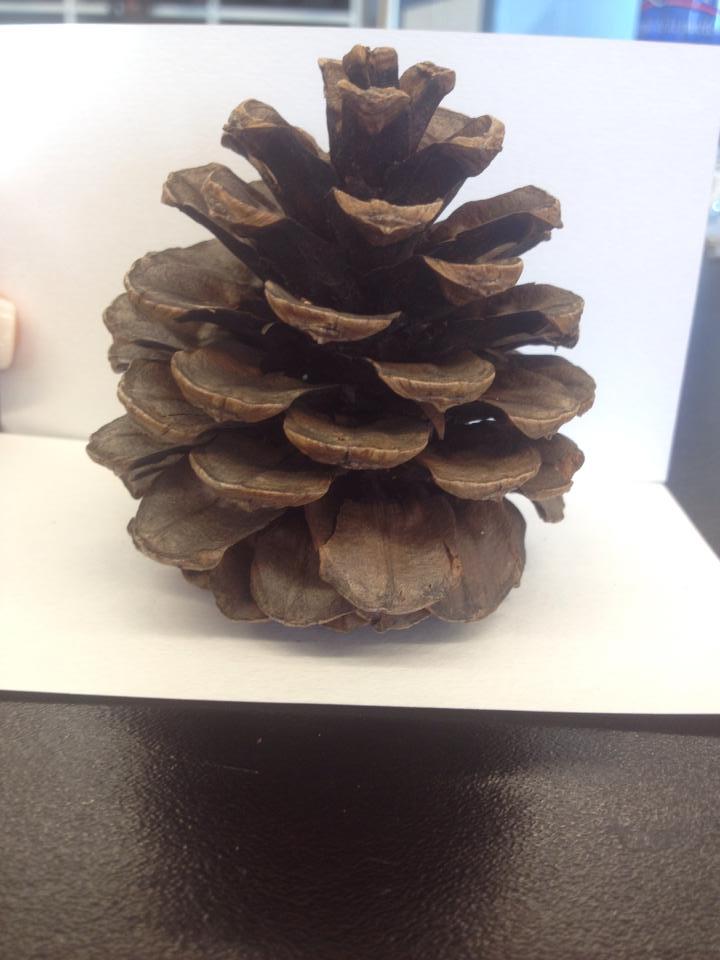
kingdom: Plantae
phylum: Tracheophyta
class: Pinopsida
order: Pinales
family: Pinaceae
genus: Pinus
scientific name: Pinus ponderosa
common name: Western yellow-pine
